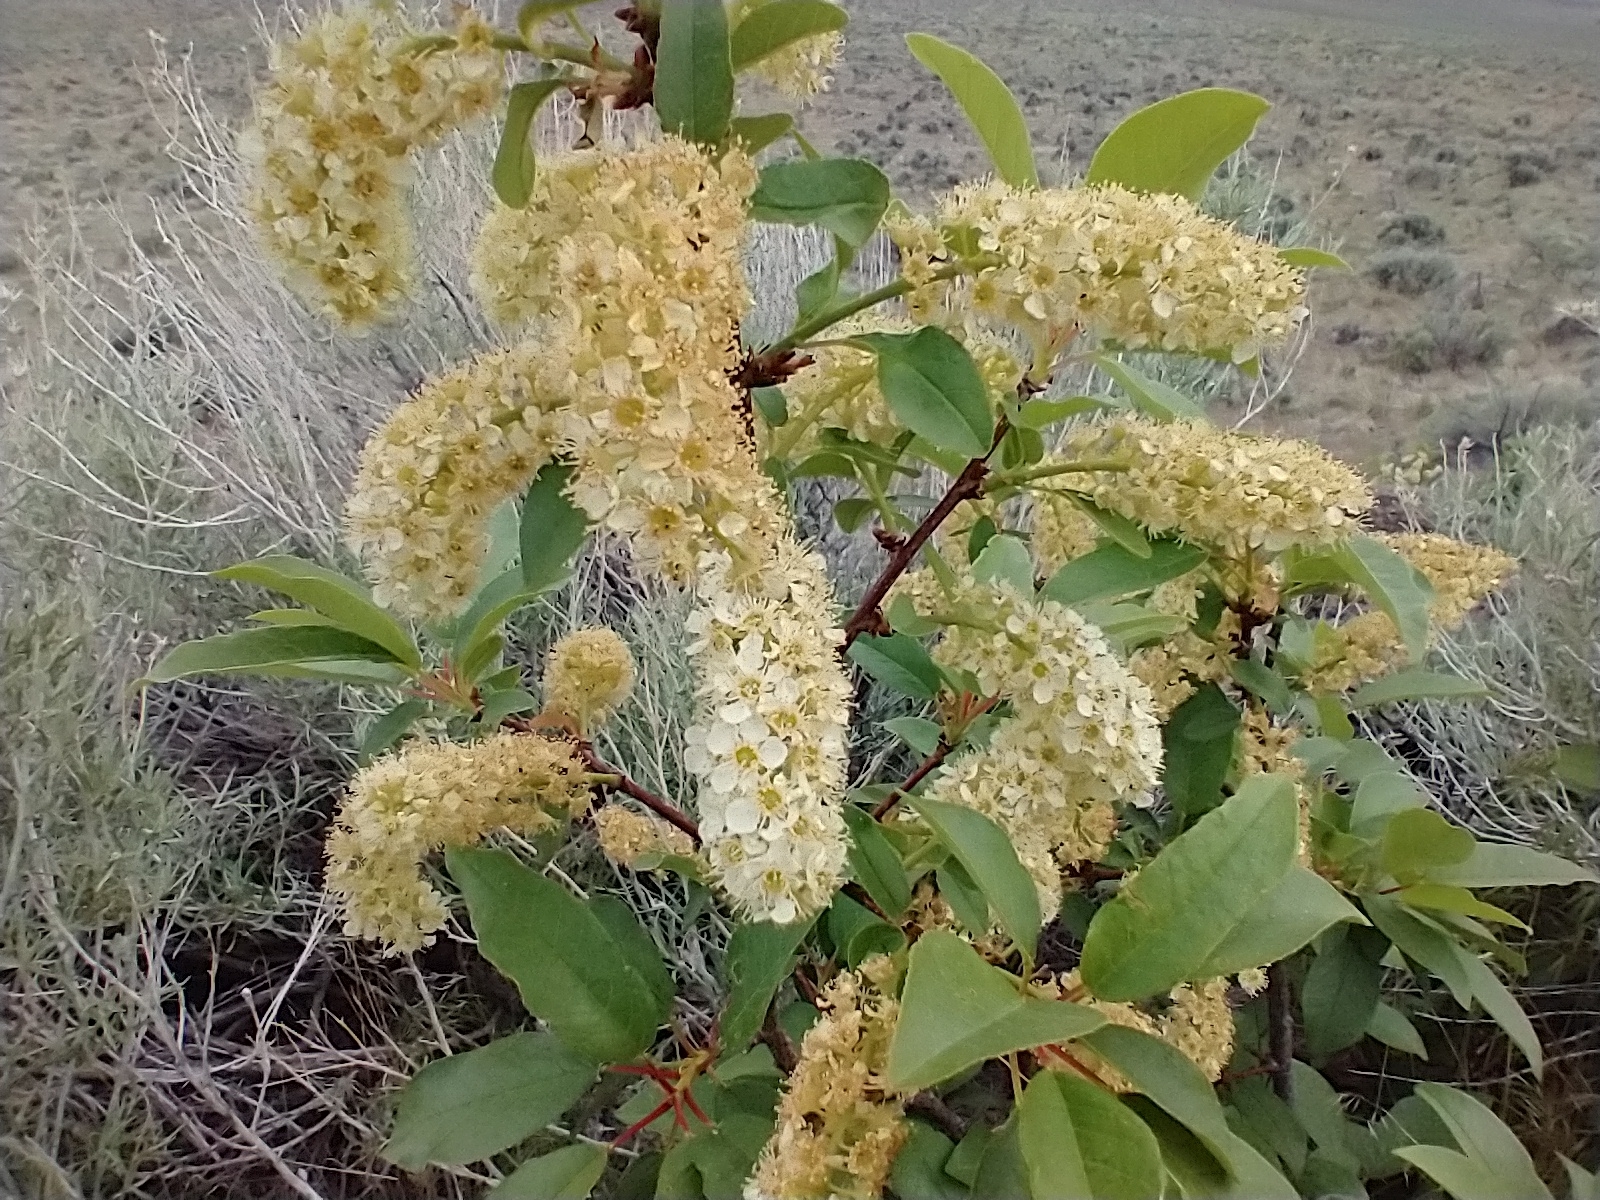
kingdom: Plantae
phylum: Tracheophyta
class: Magnoliopsida
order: Rosales
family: Rosaceae
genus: Prunus
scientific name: Prunus virginiana
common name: Chokecherry
